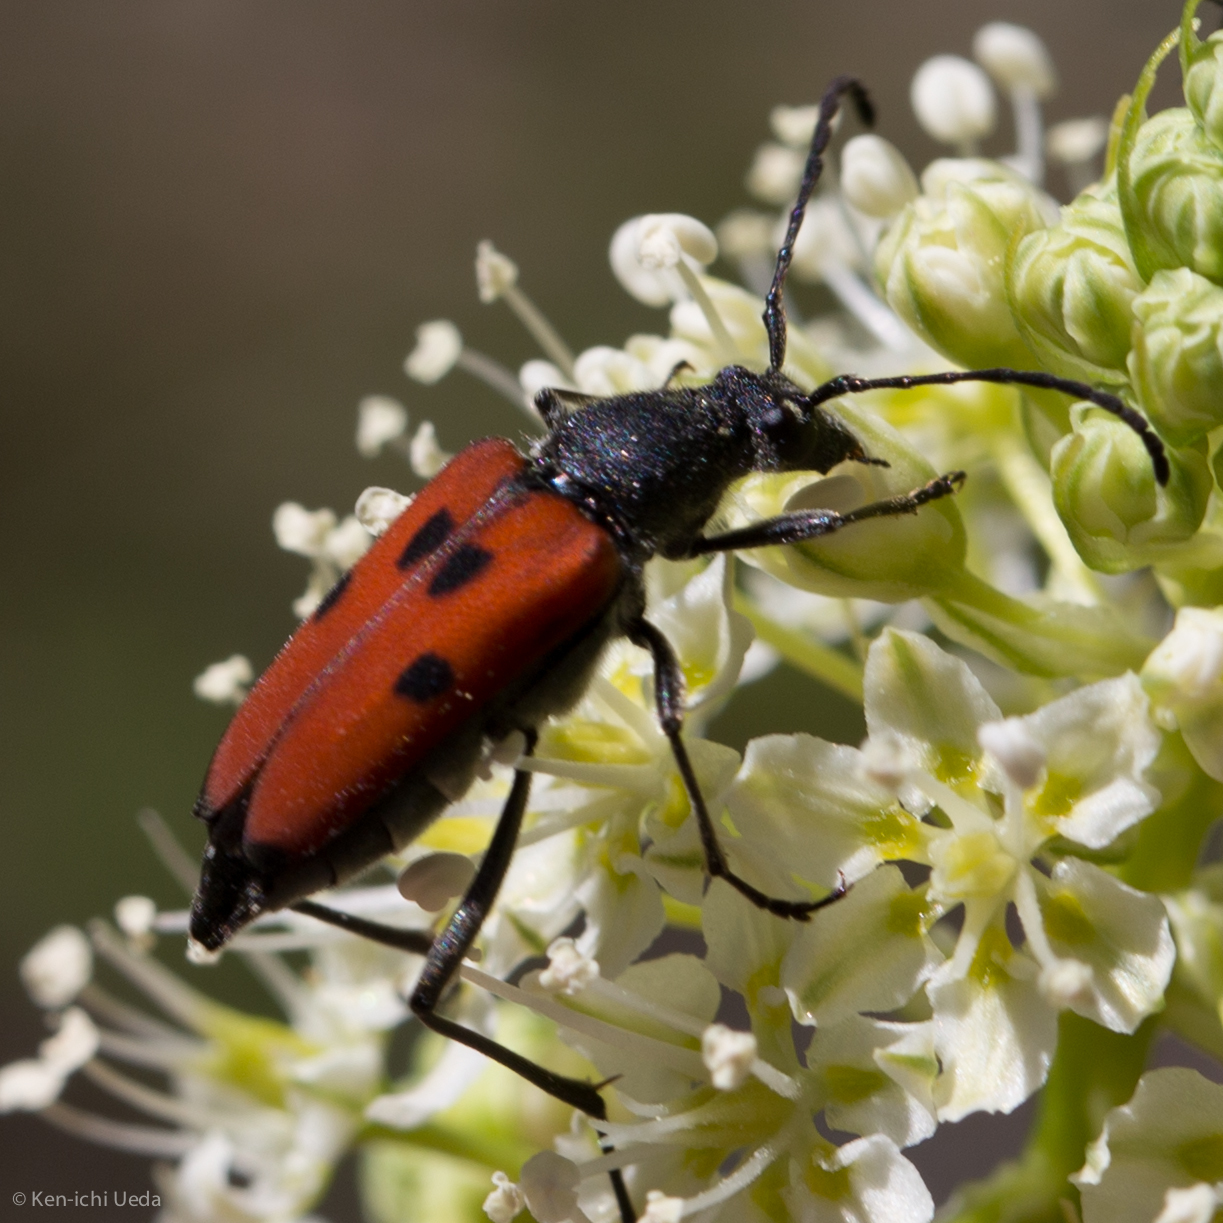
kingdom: Animalia
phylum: Arthropoda
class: Insecta
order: Coleoptera
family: Cerambycidae
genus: Anastrangalia
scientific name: Anastrangalia laetifica
